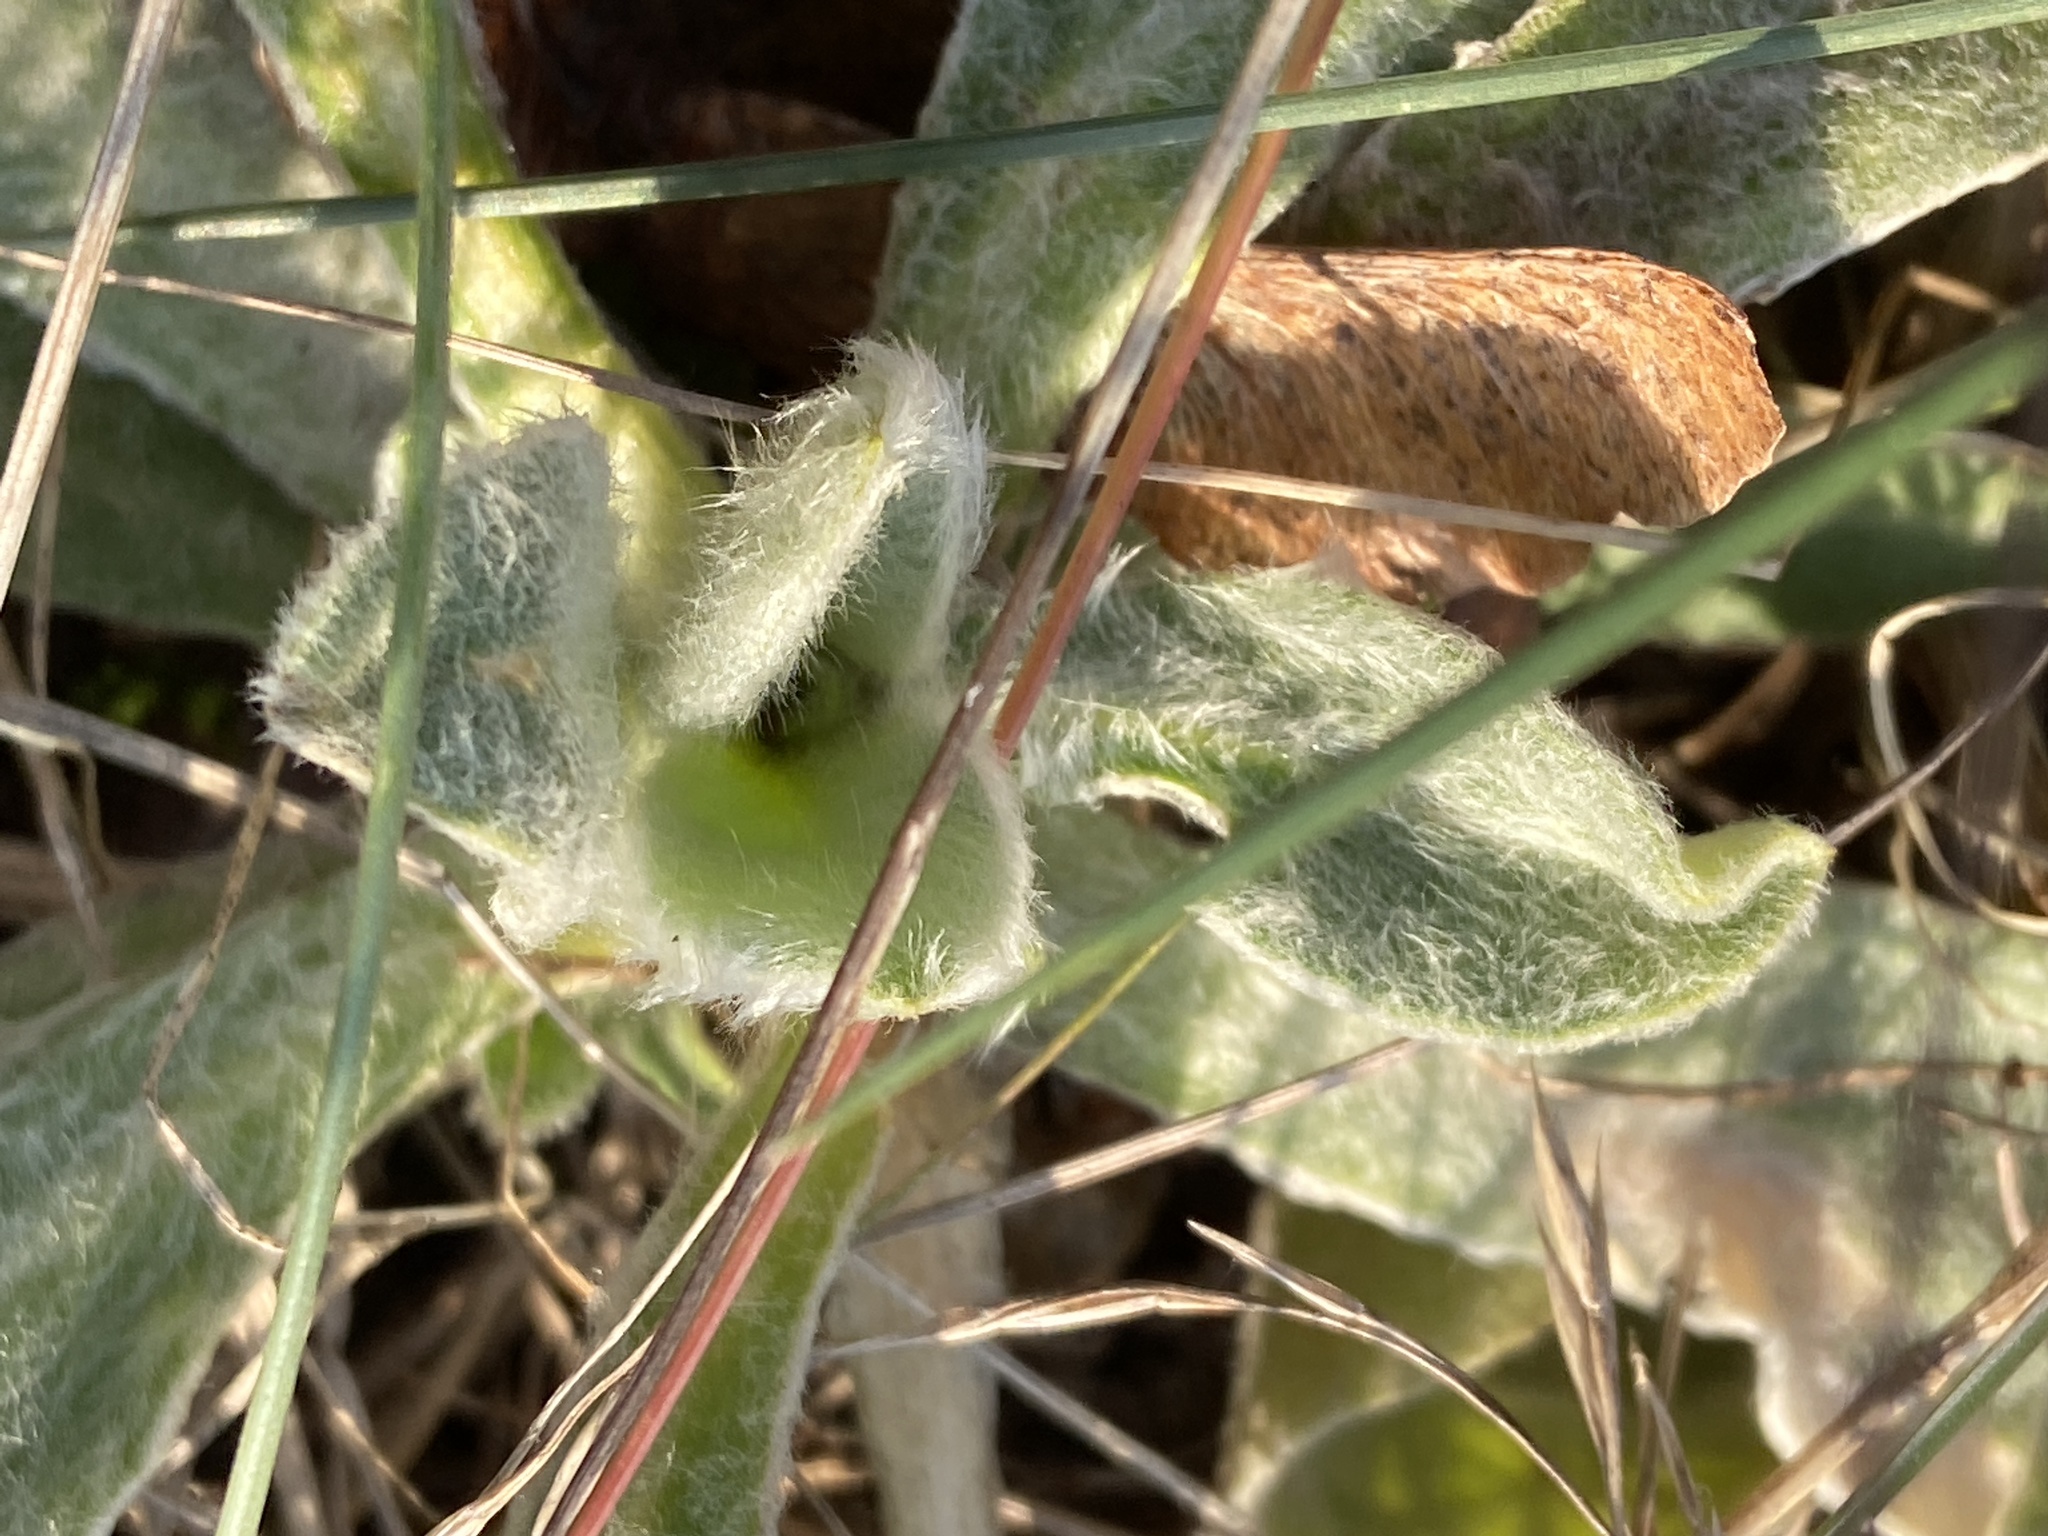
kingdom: Plantae
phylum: Tracheophyta
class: Magnoliopsida
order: Caryophyllales
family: Caryophyllaceae
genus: Silene
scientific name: Silene coronaria
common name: Rose campion
